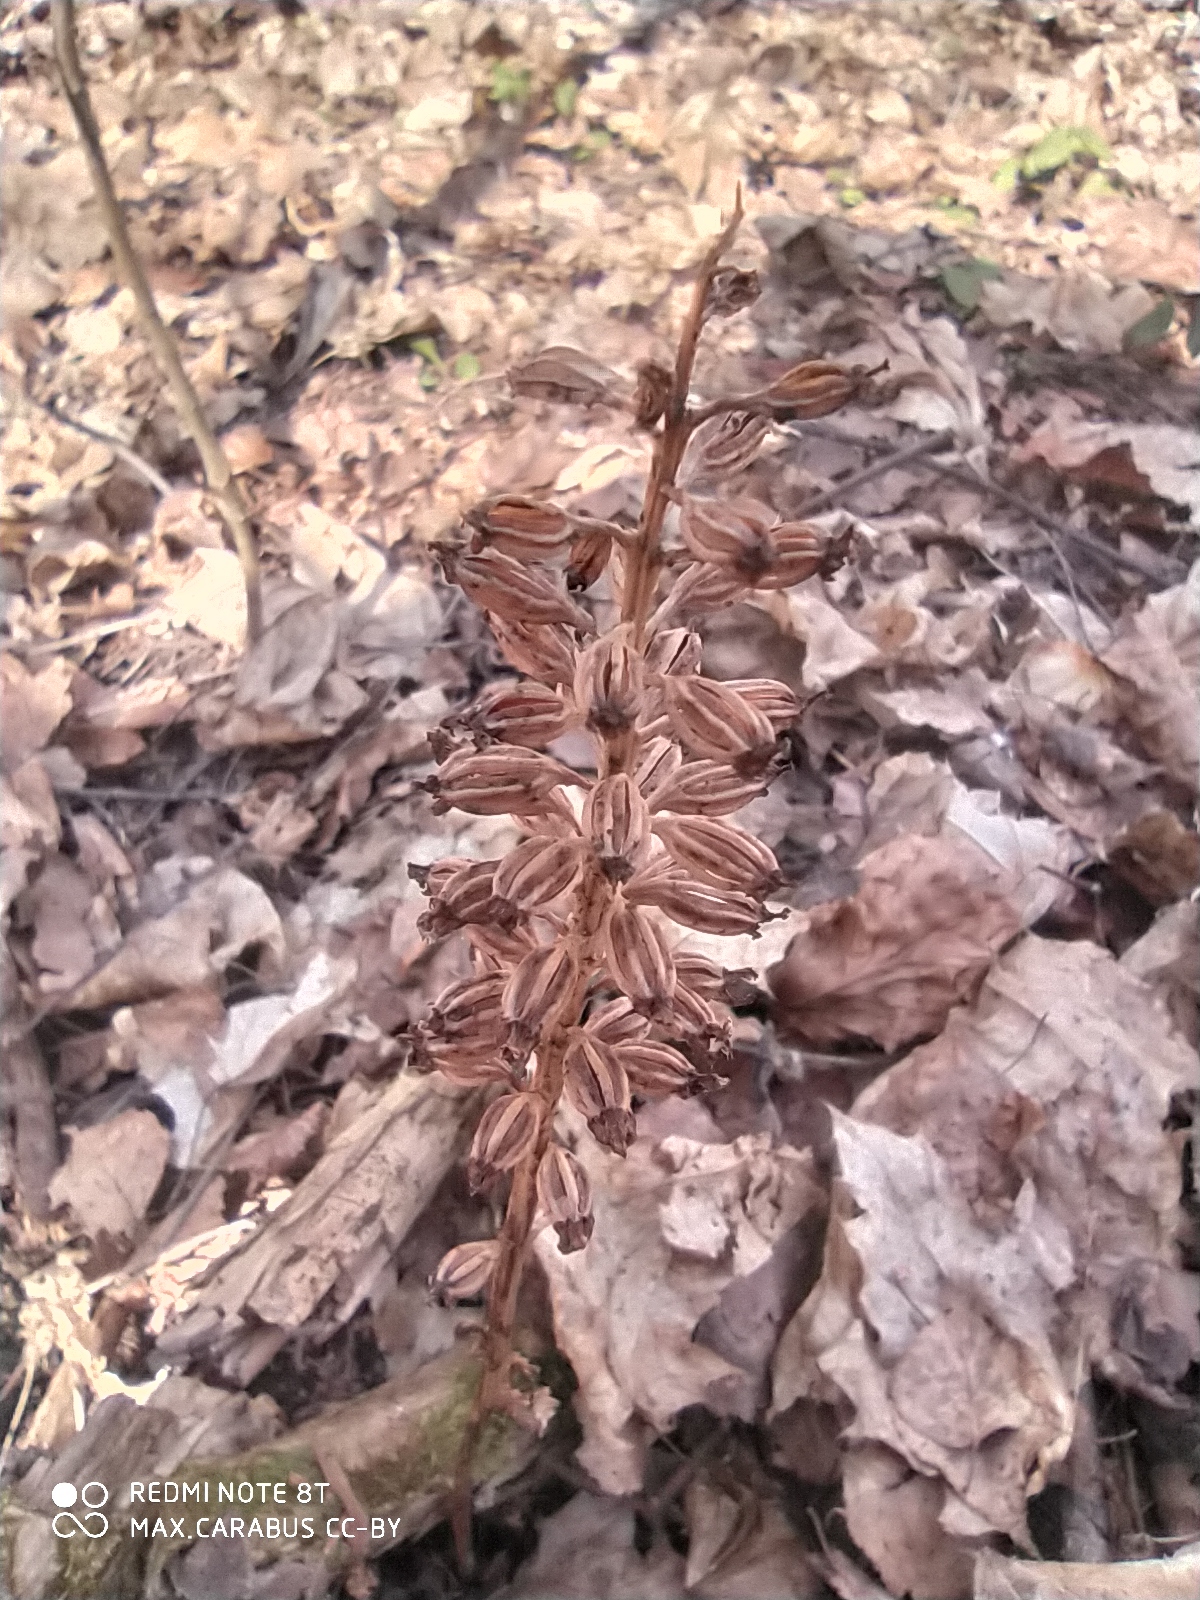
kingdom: Plantae
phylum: Tracheophyta
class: Liliopsida
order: Asparagales
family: Orchidaceae
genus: Neottia
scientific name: Neottia nidus-avis
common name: Bird's-nest orchid
